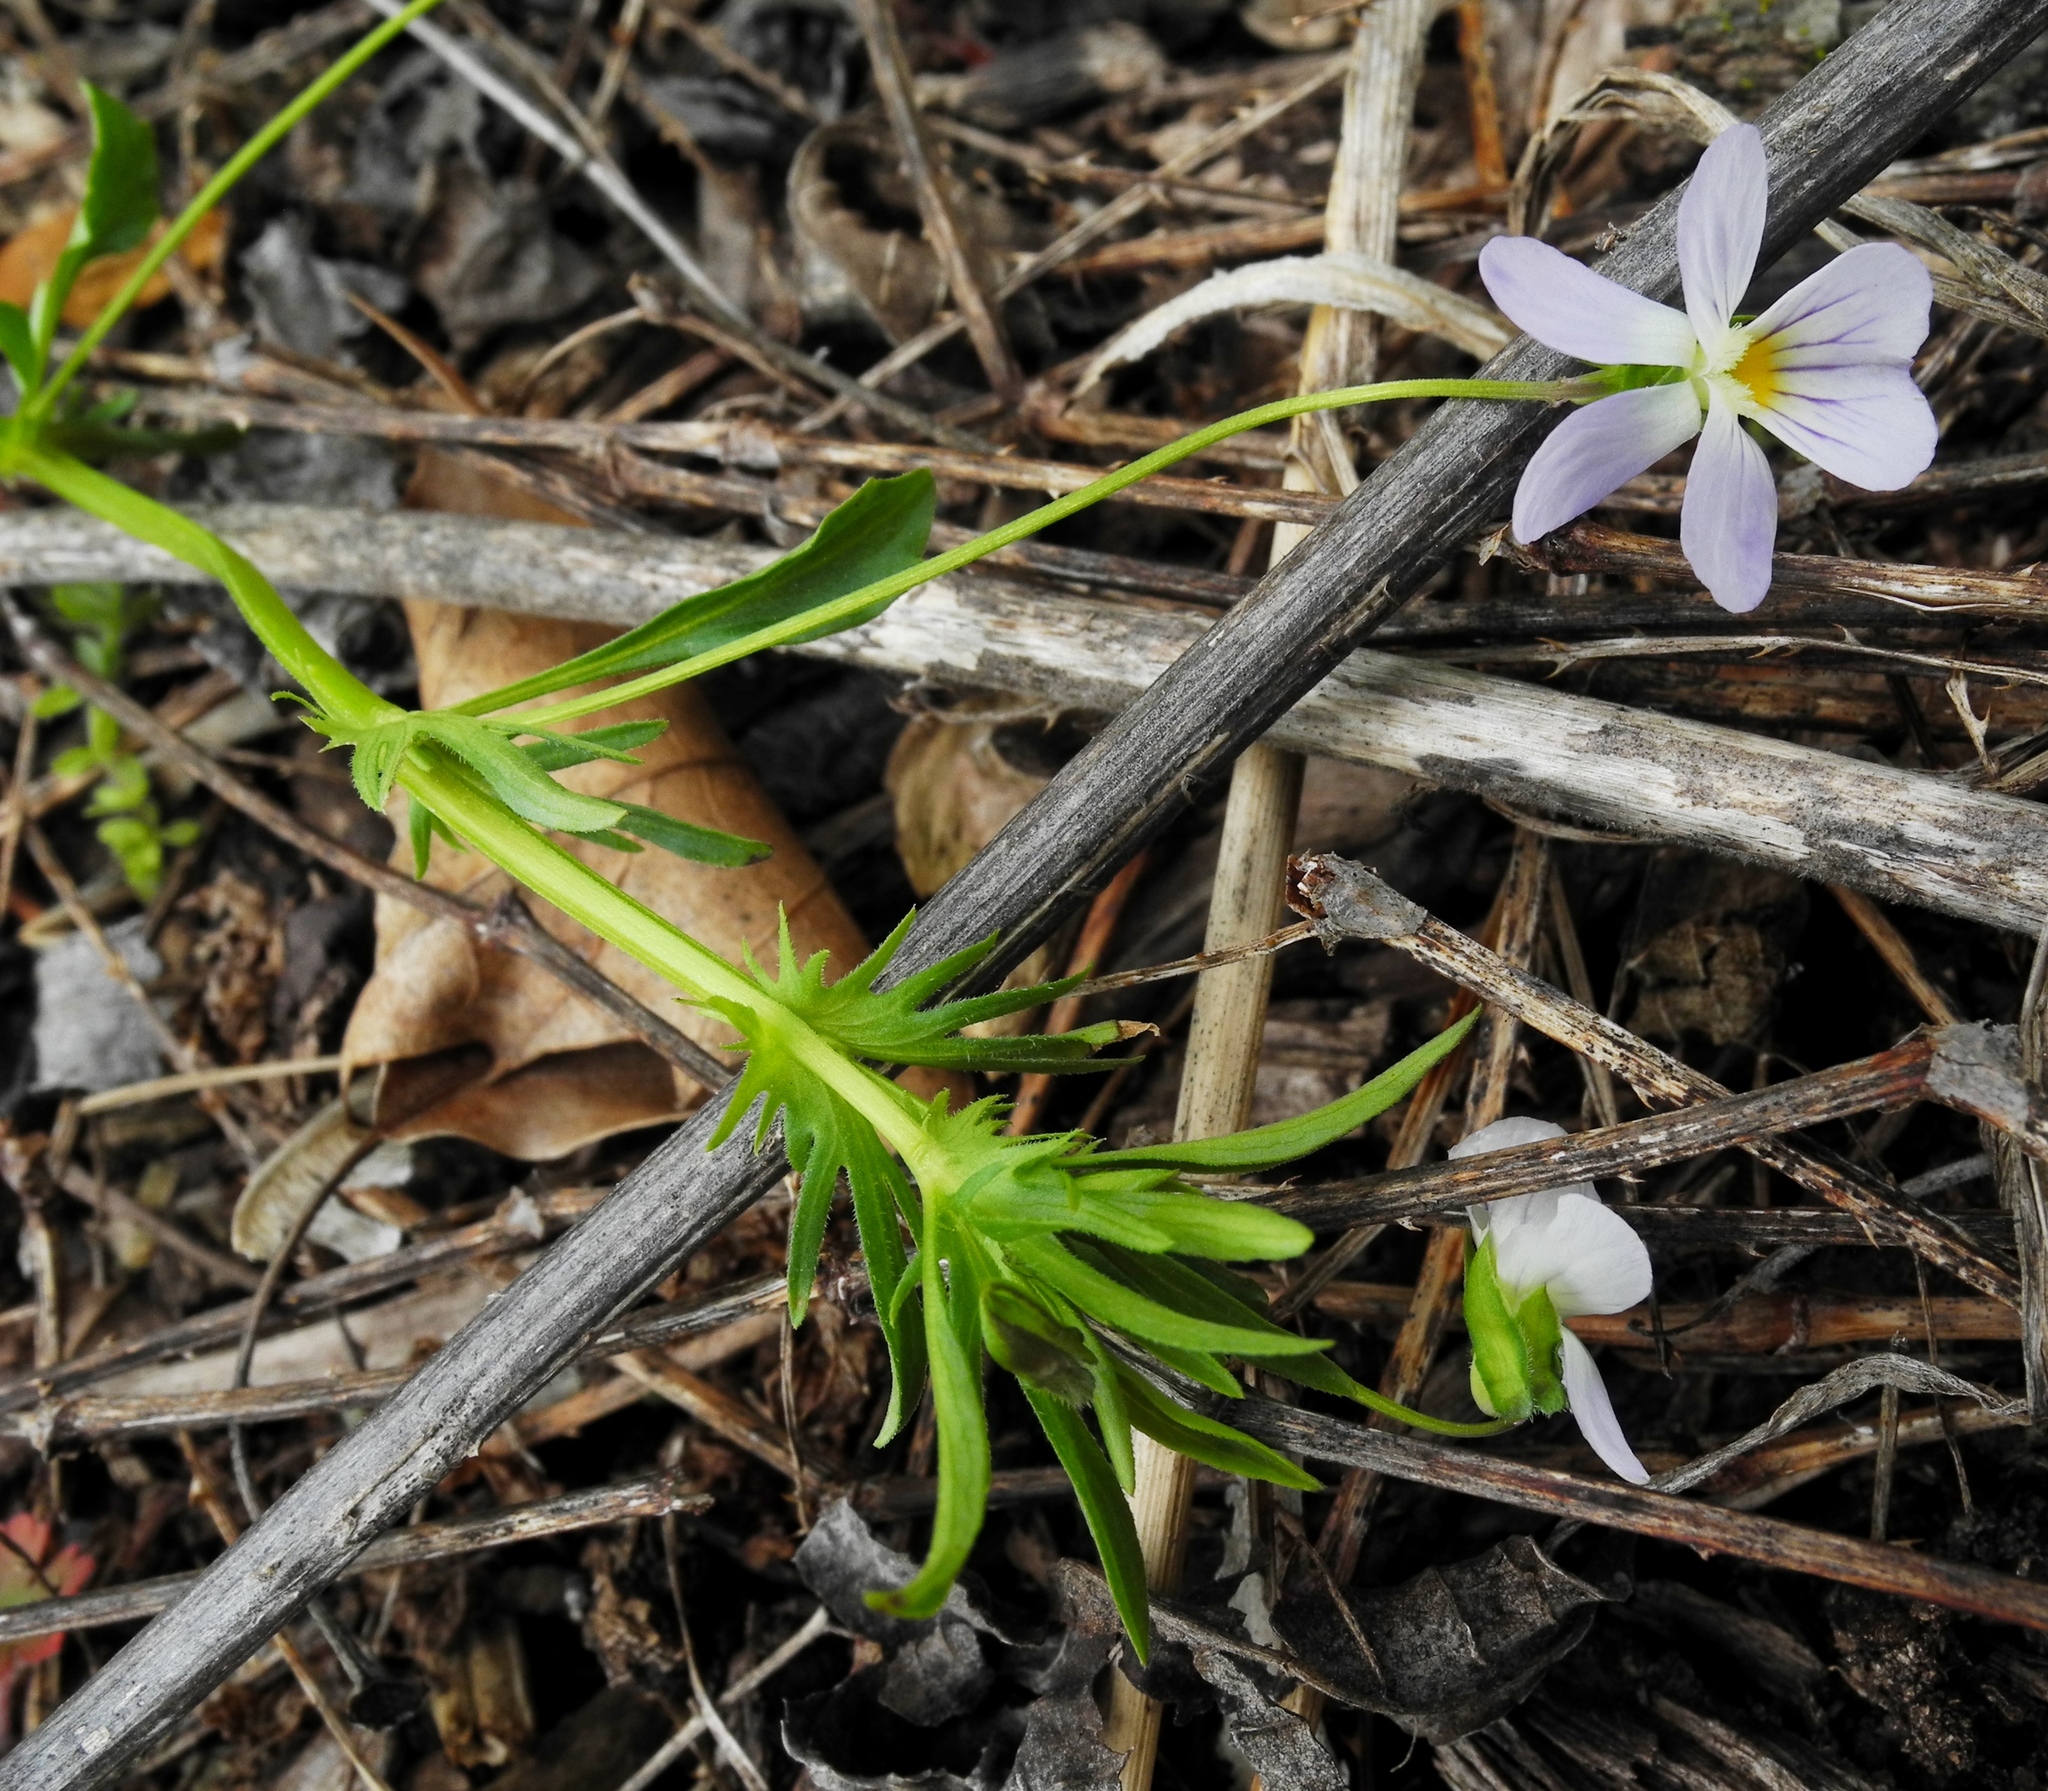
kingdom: Plantae
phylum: Tracheophyta
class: Magnoliopsida
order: Malpighiales
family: Violaceae
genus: Viola
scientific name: Viola rafinesquei
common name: American field pansy
